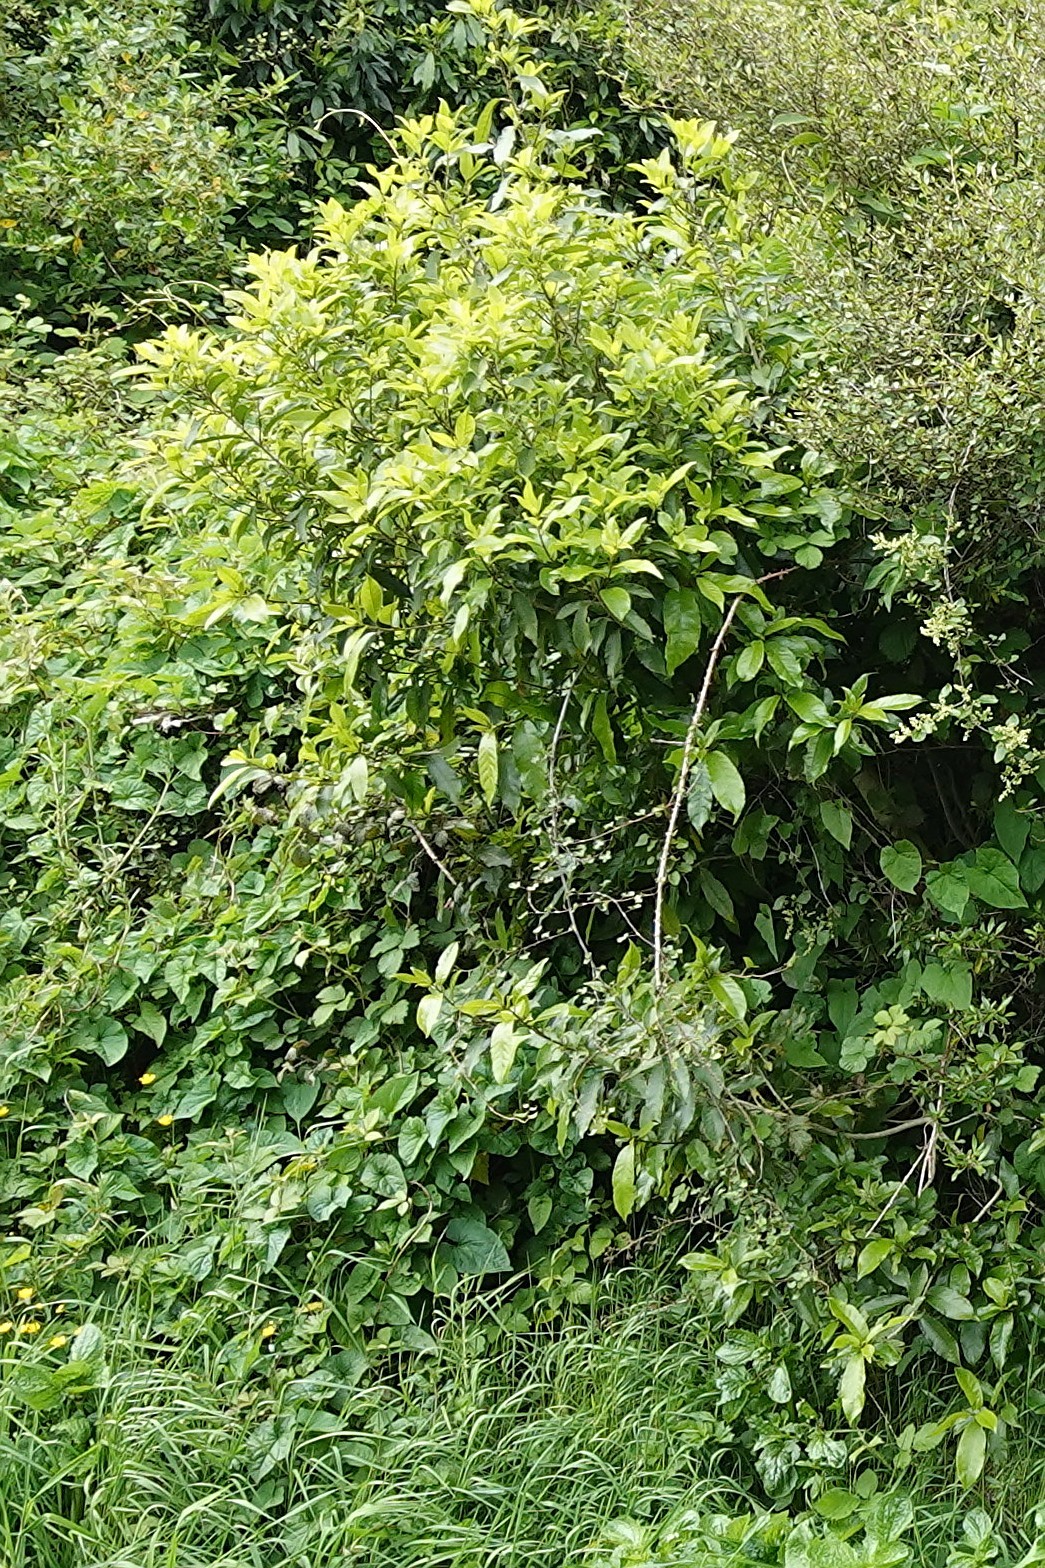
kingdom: Plantae
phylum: Tracheophyta
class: Magnoliopsida
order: Malpighiales
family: Violaceae
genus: Melicytus
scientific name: Melicytus ramiflorus
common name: Mahoe
